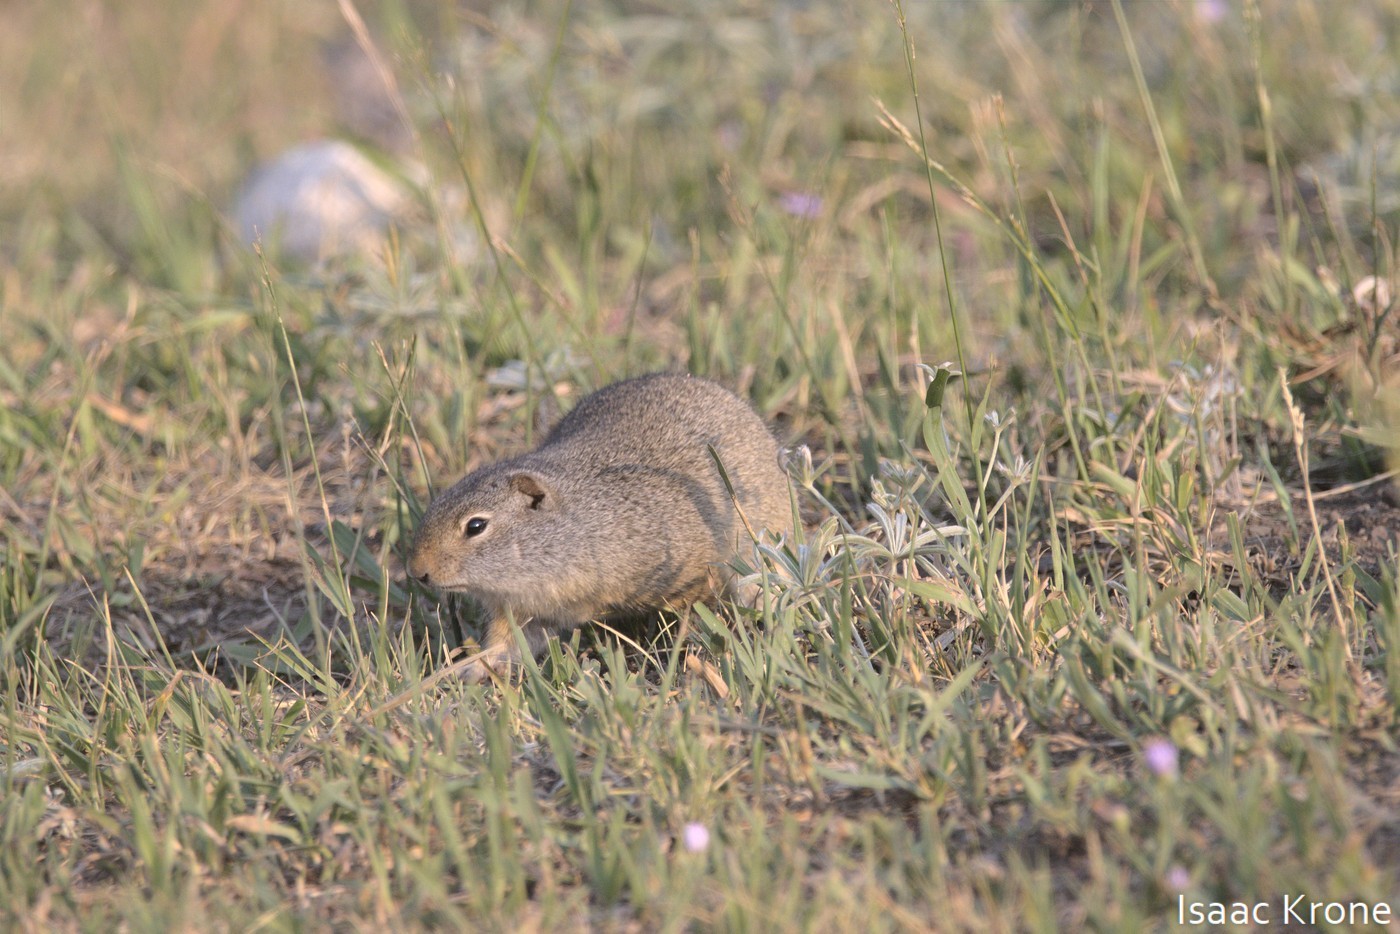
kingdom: Animalia
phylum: Chordata
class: Mammalia
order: Rodentia
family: Sciuridae
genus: Urocitellus
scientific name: Urocitellus armatus
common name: Uinta ground squirrel
